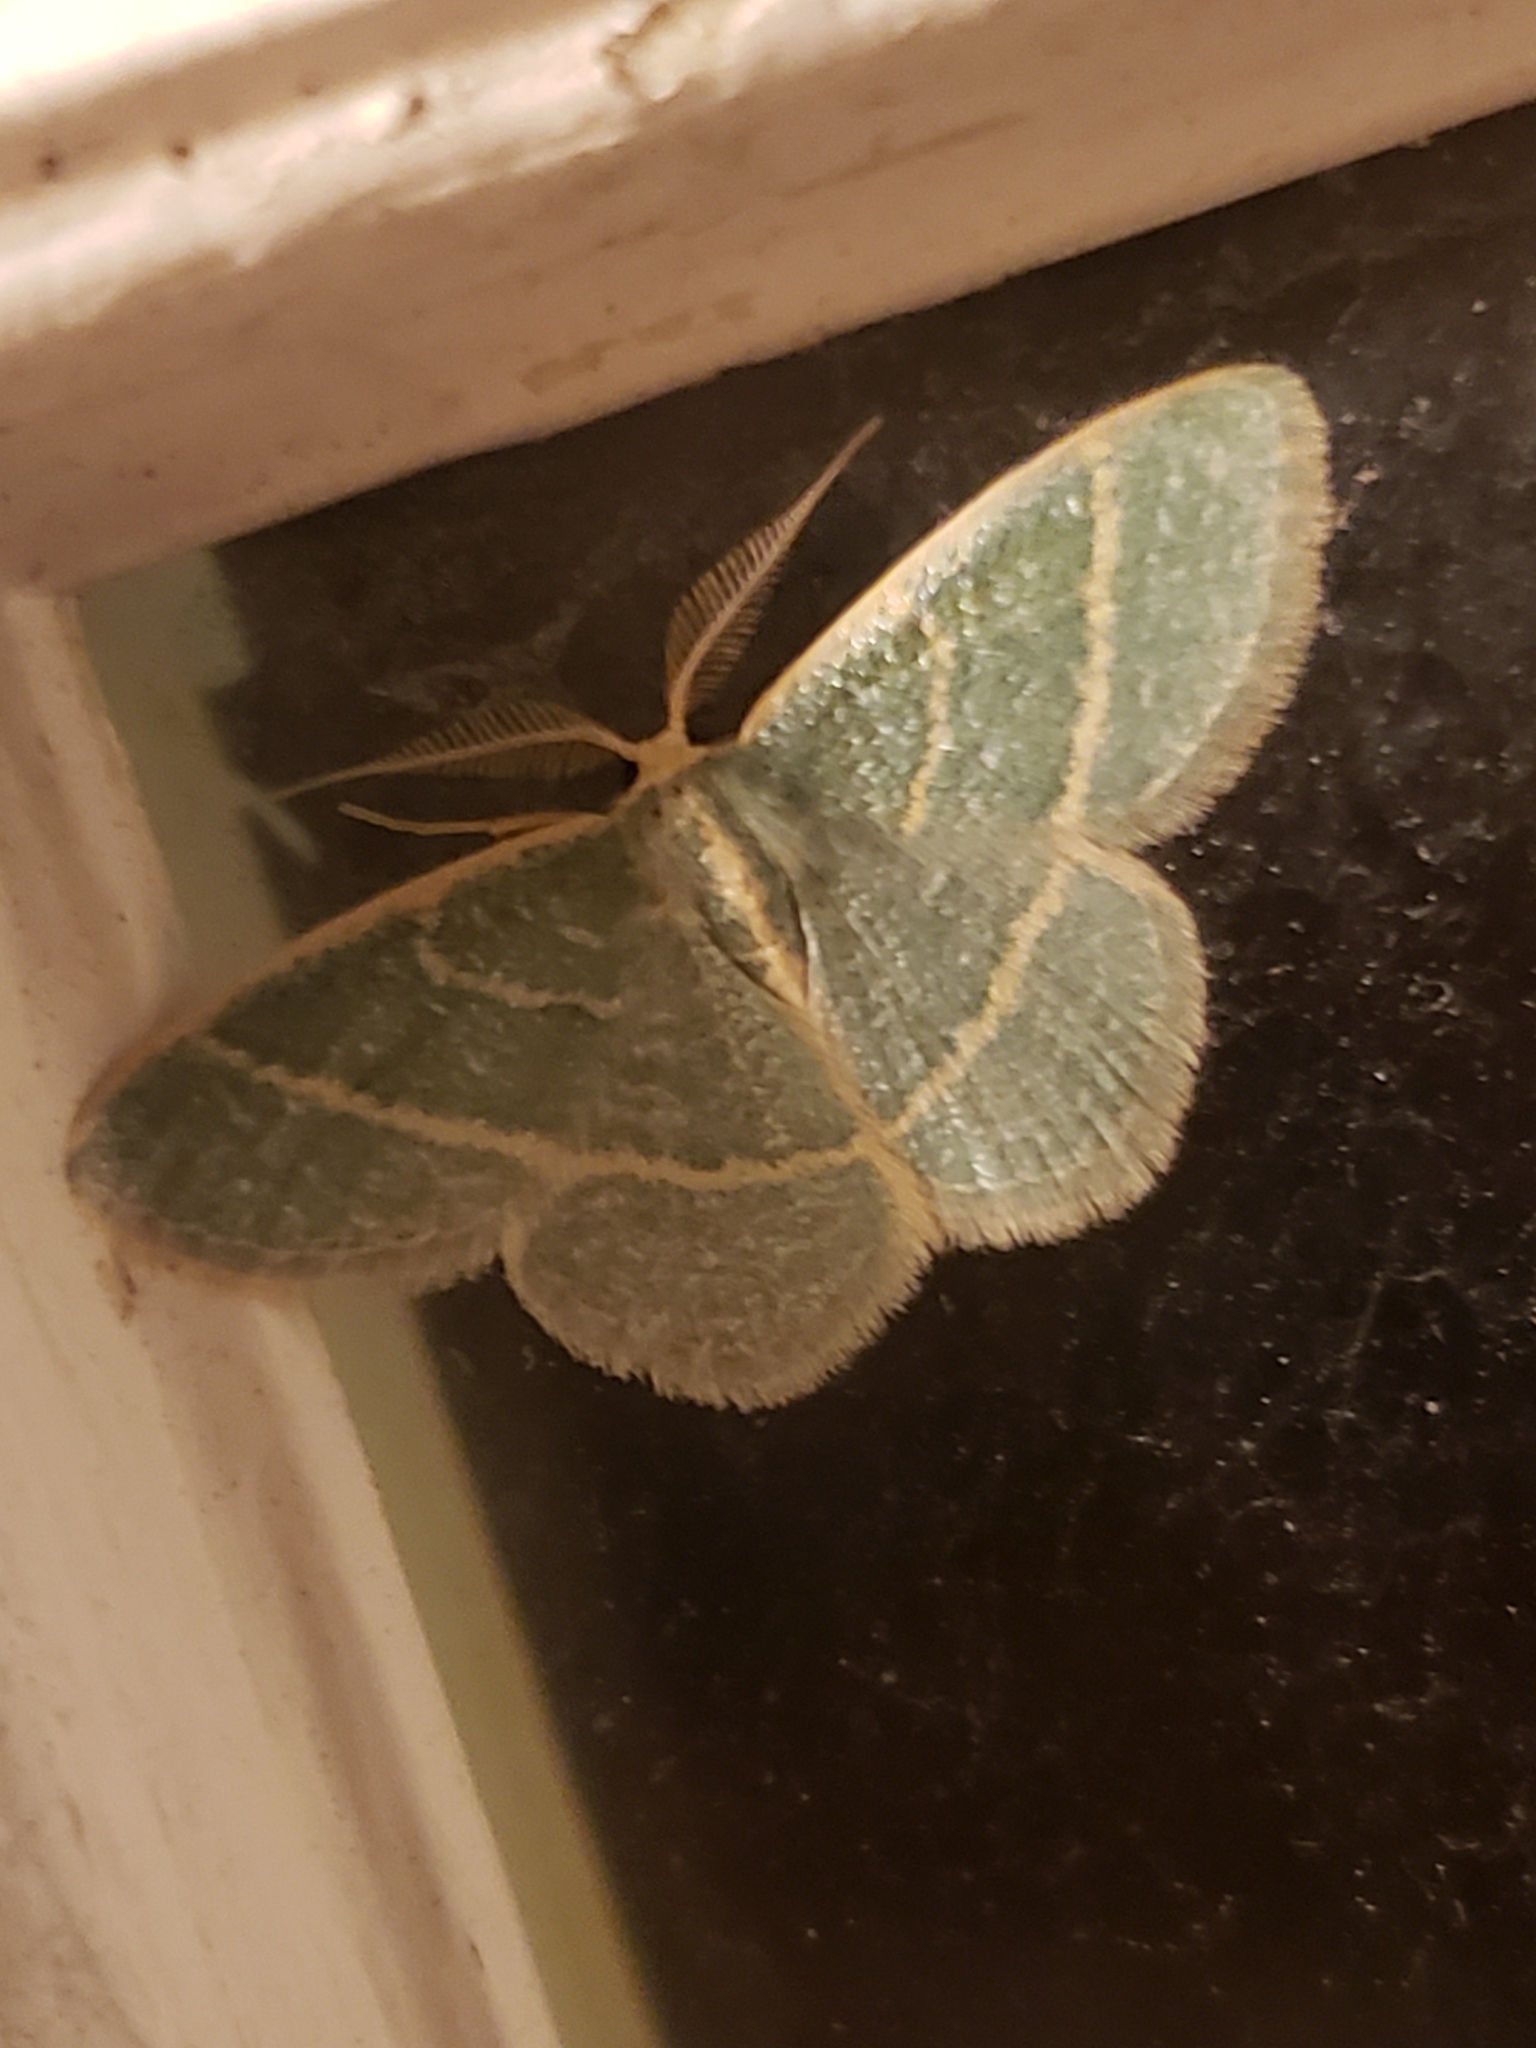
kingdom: Animalia
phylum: Arthropoda
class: Insecta
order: Lepidoptera
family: Geometridae
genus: Chlorochlamys
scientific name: Chlorochlamys chloroleucaria
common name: Blackberry looper
